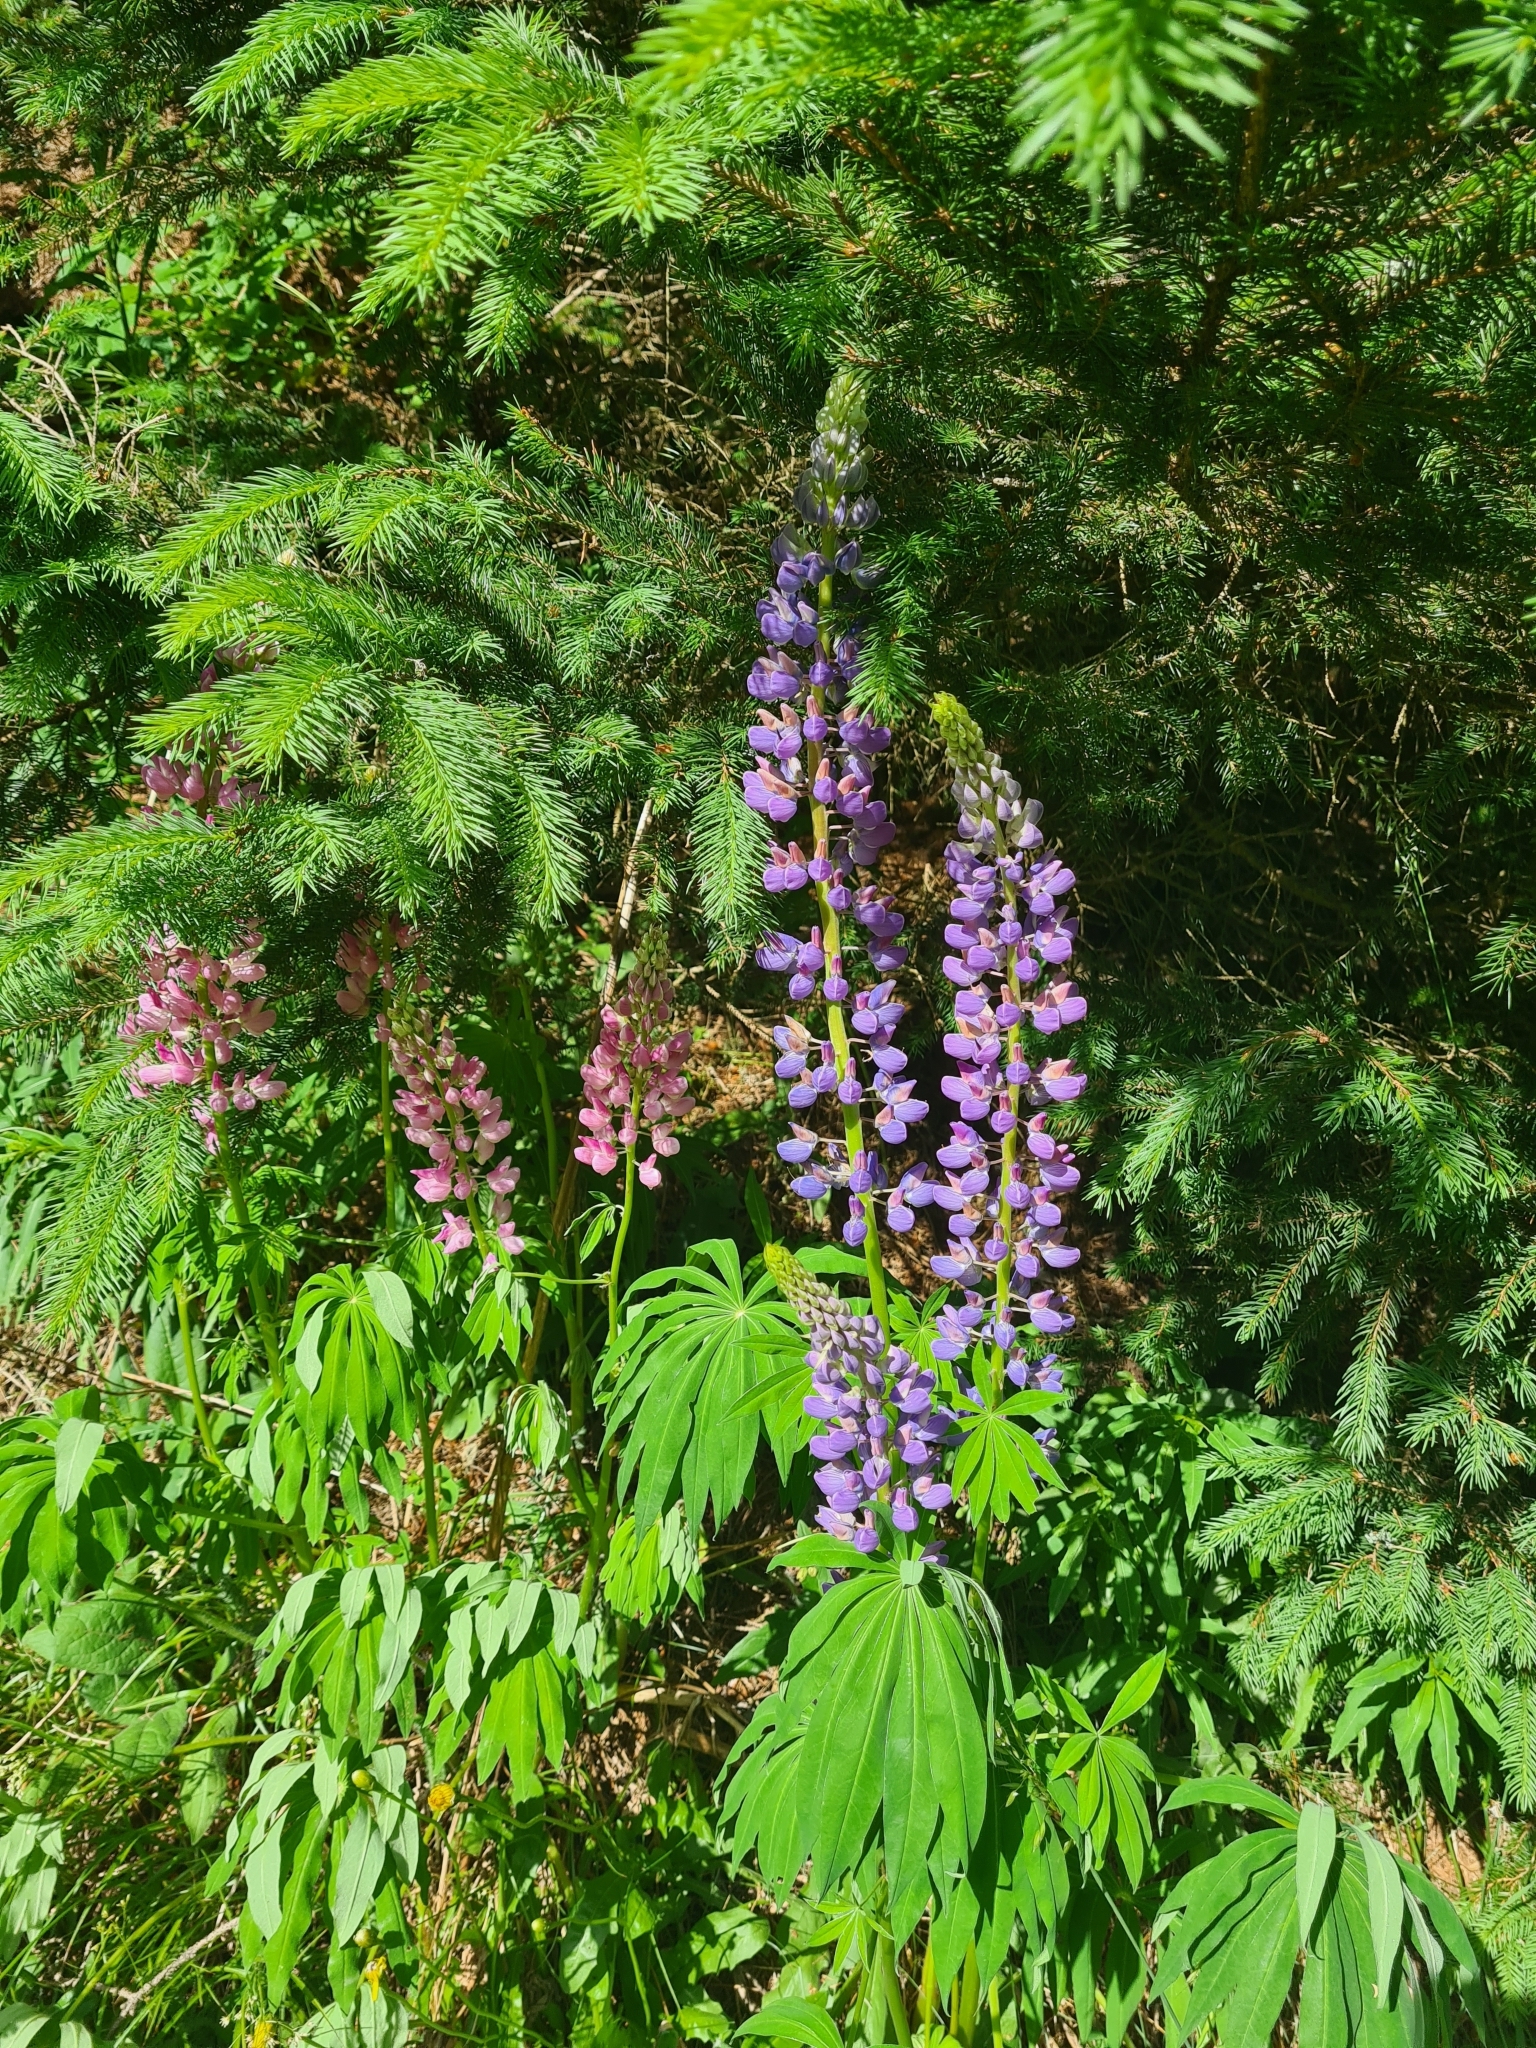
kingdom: Plantae
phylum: Tracheophyta
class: Magnoliopsida
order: Fabales
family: Fabaceae
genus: Lupinus
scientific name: Lupinus polyphyllus
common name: Garden lupin
